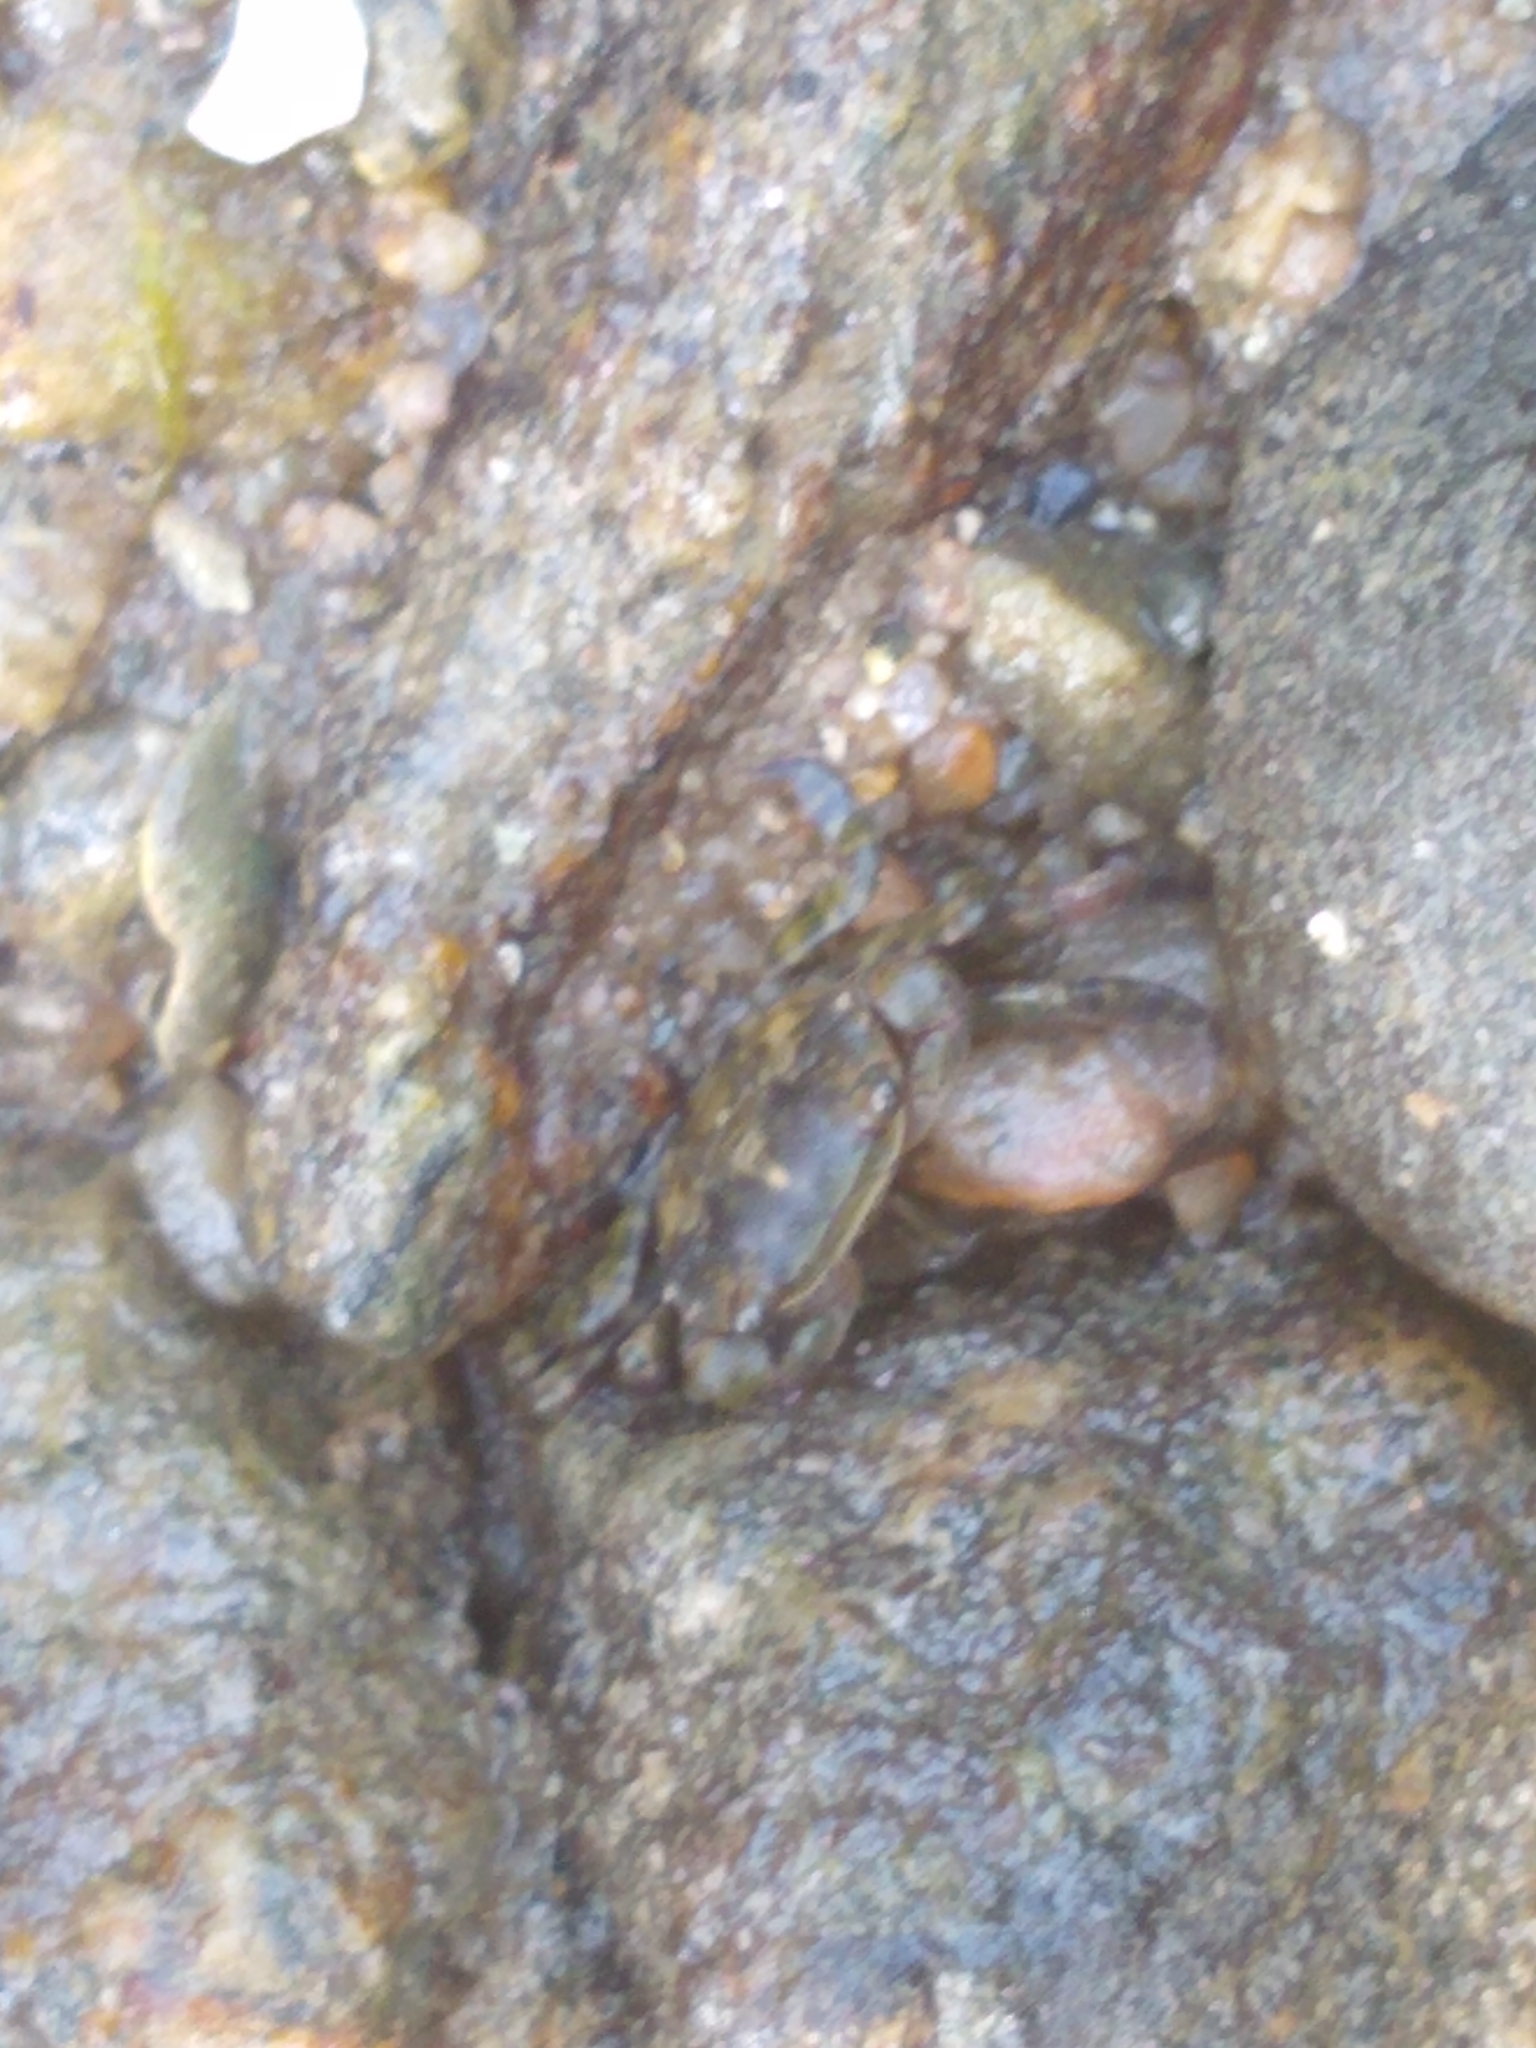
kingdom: Animalia
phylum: Arthropoda
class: Malacostraca
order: Decapoda
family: Varunidae
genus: Hemigrapsus
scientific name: Hemigrapsus sanguineus
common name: Asian shore crab
